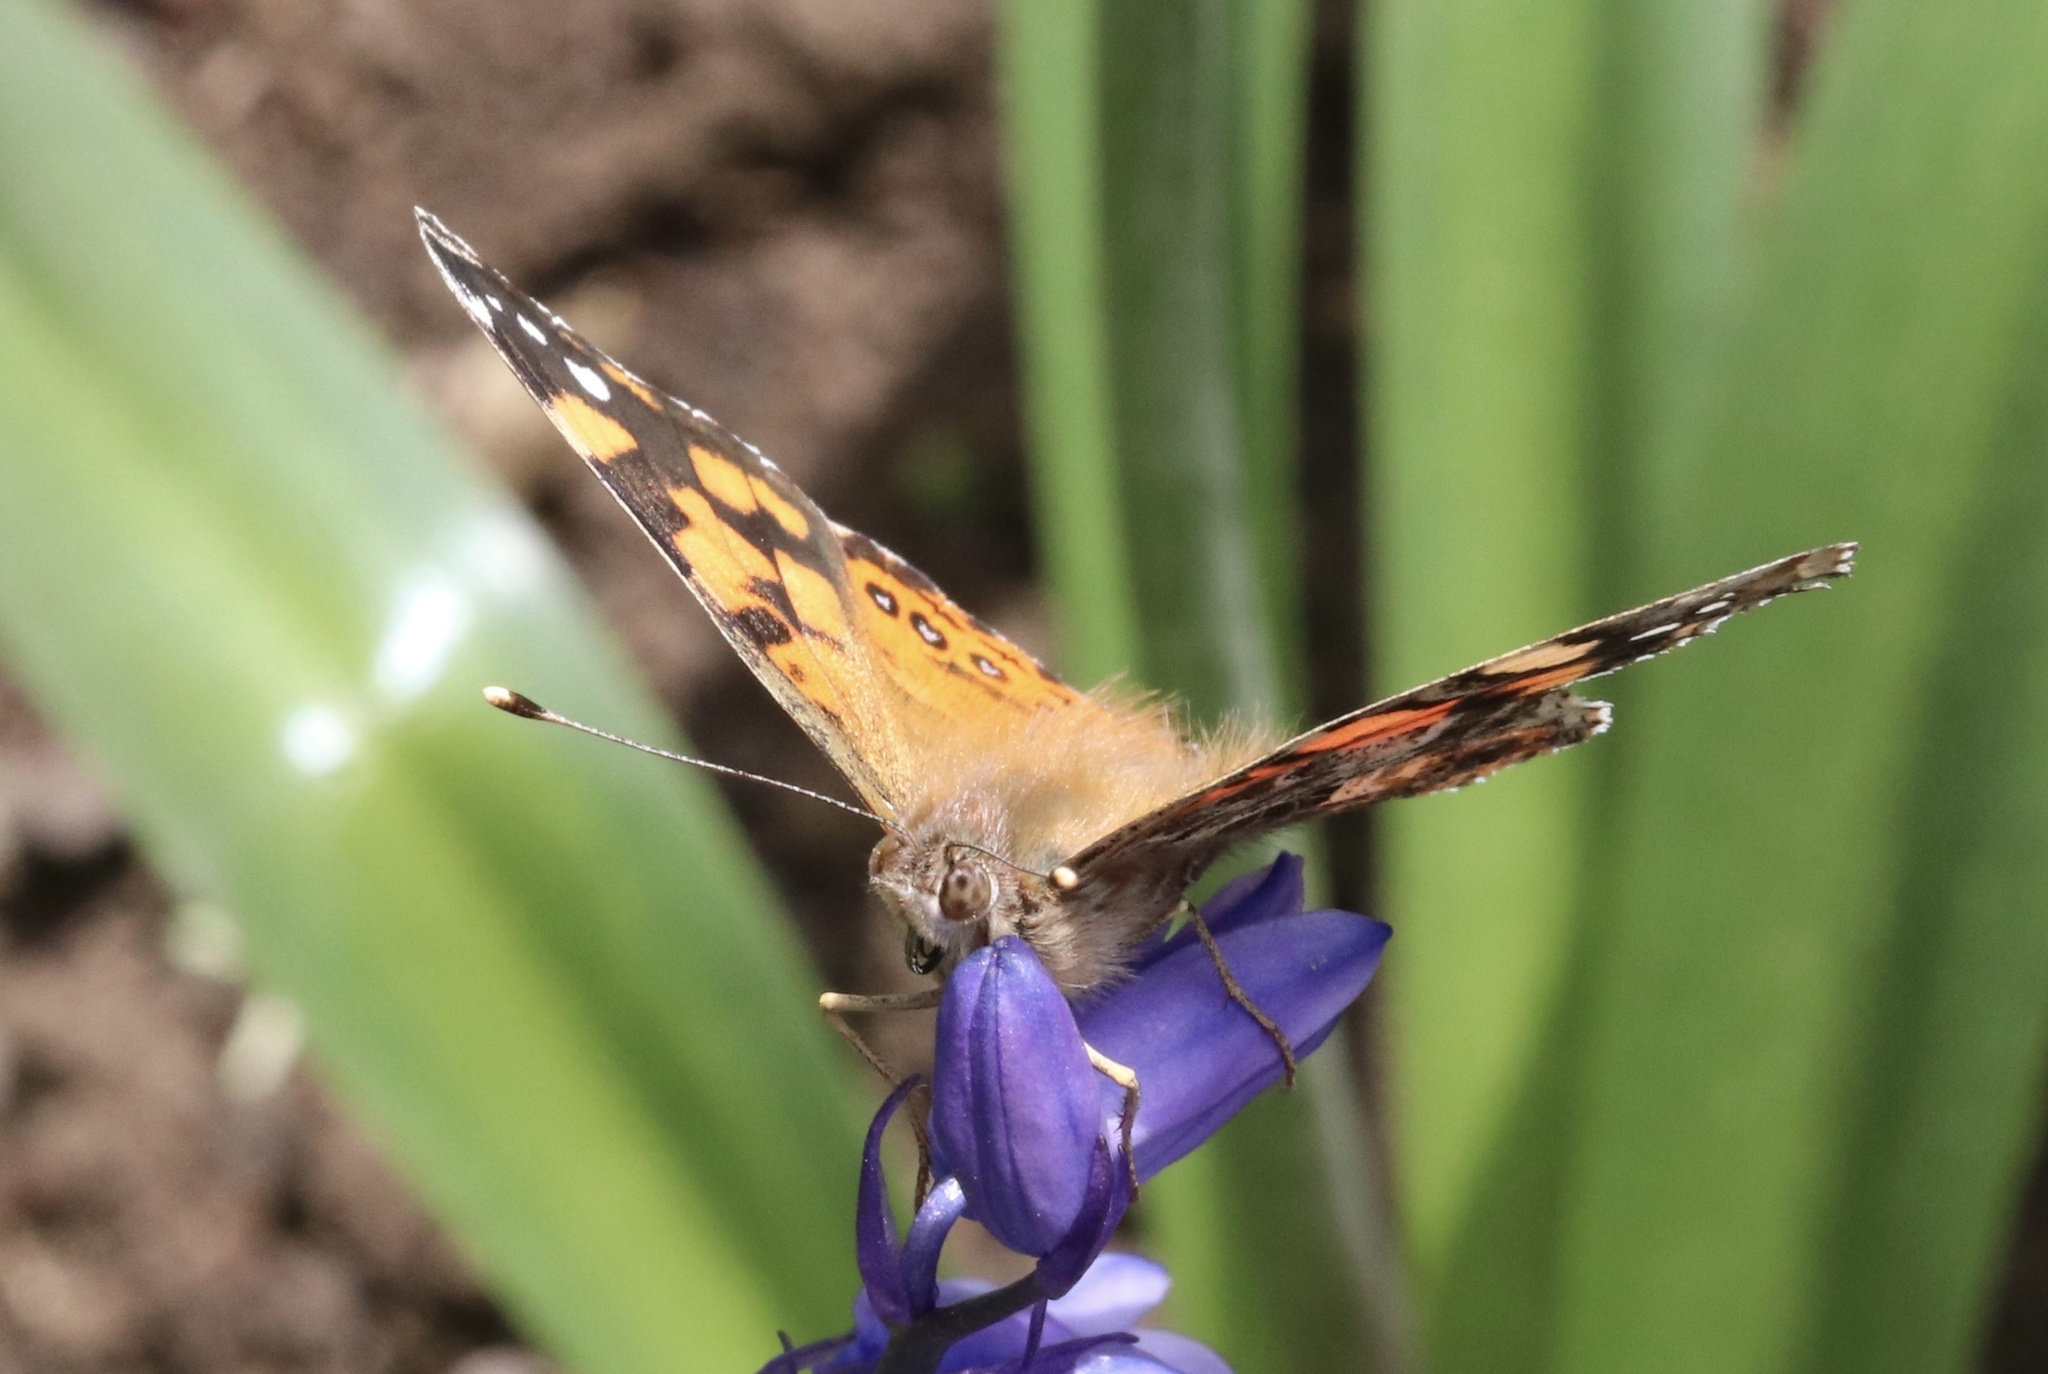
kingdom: Animalia
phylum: Arthropoda
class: Insecta
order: Lepidoptera
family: Nymphalidae
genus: Vanessa
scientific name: Vanessa carye
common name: Subtropical lady
